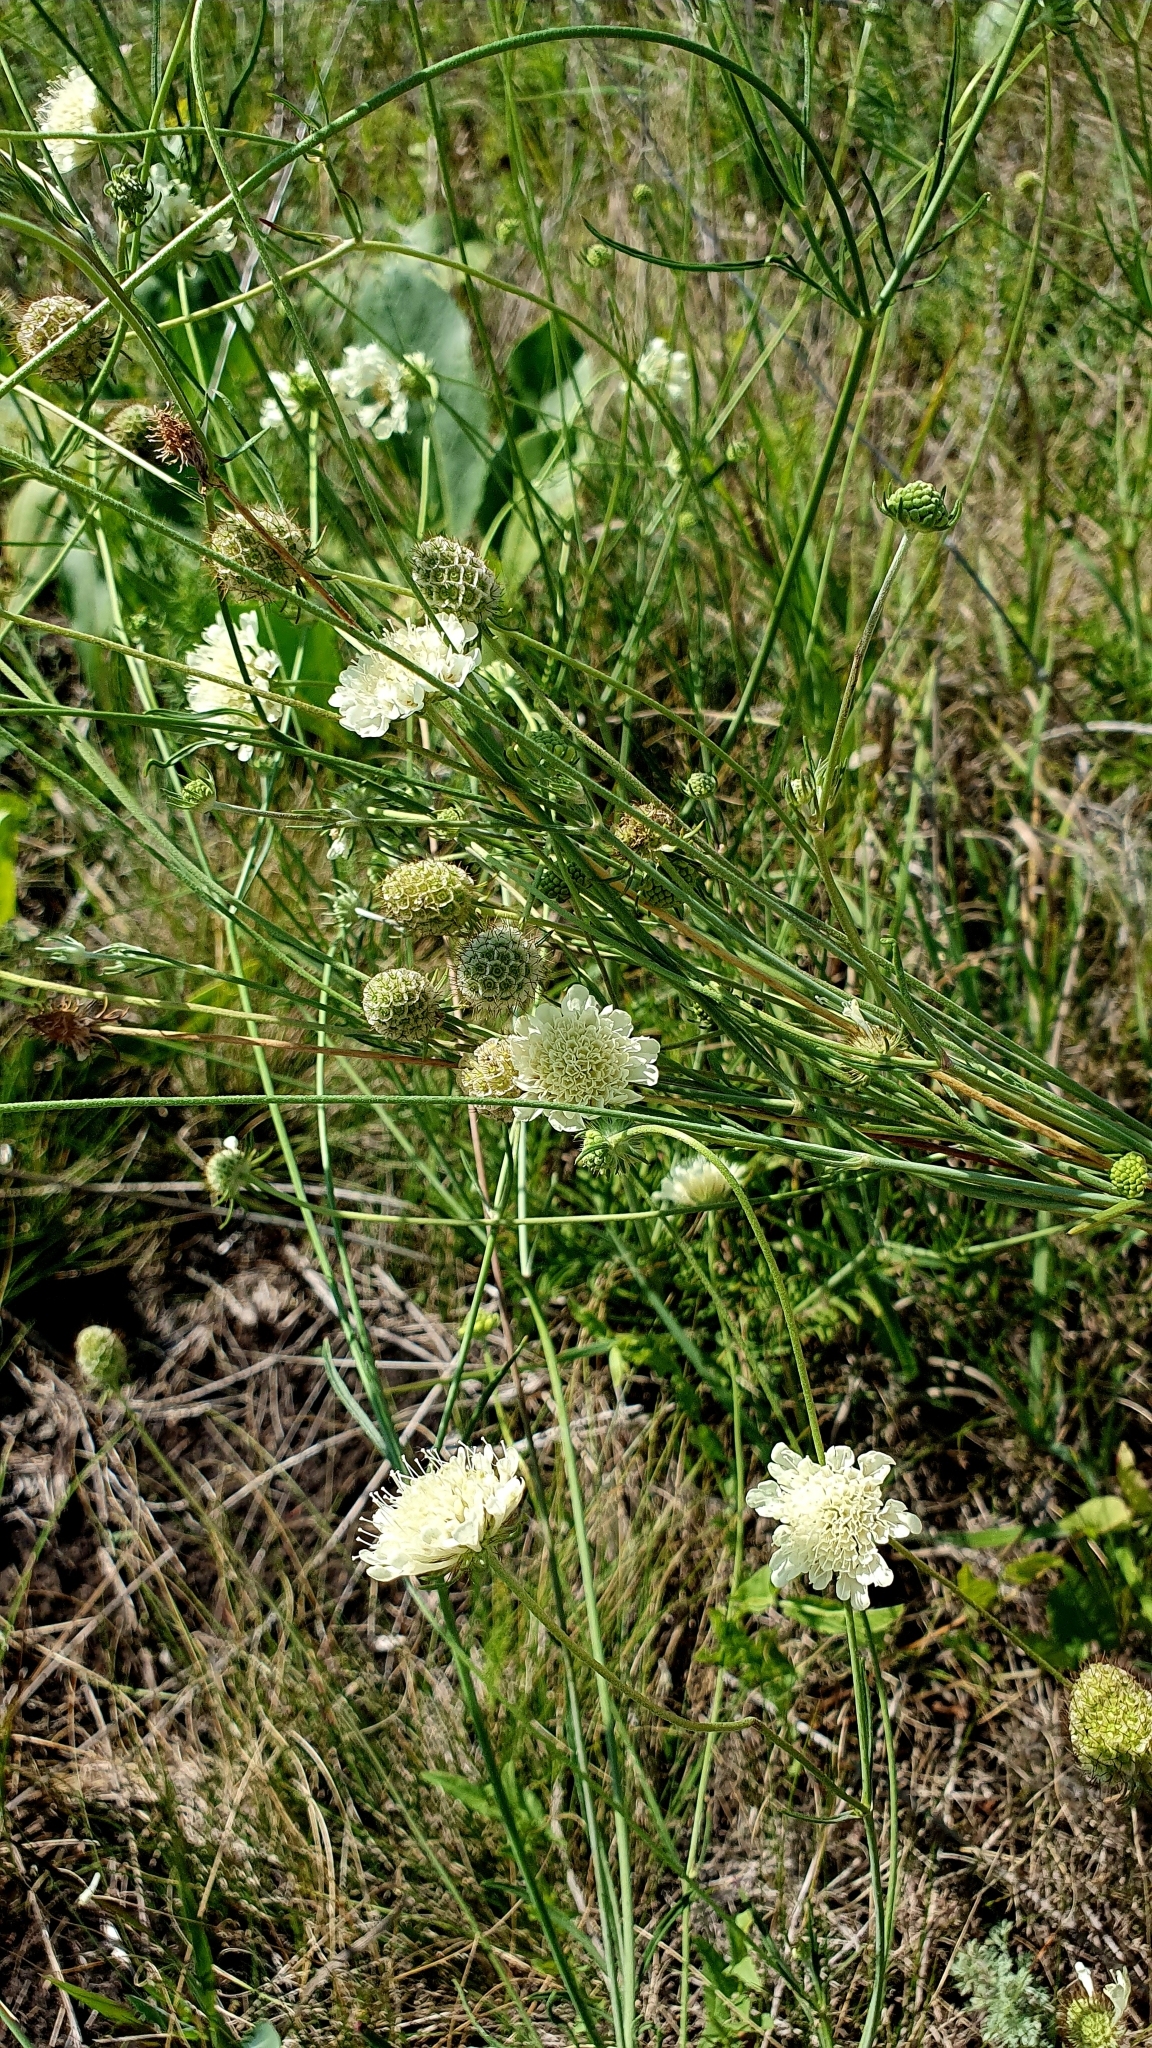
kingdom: Plantae
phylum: Tracheophyta
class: Magnoliopsida
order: Dipsacales
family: Caprifoliaceae
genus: Scabiosa
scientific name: Scabiosa ochroleuca
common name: Cream pincushions
